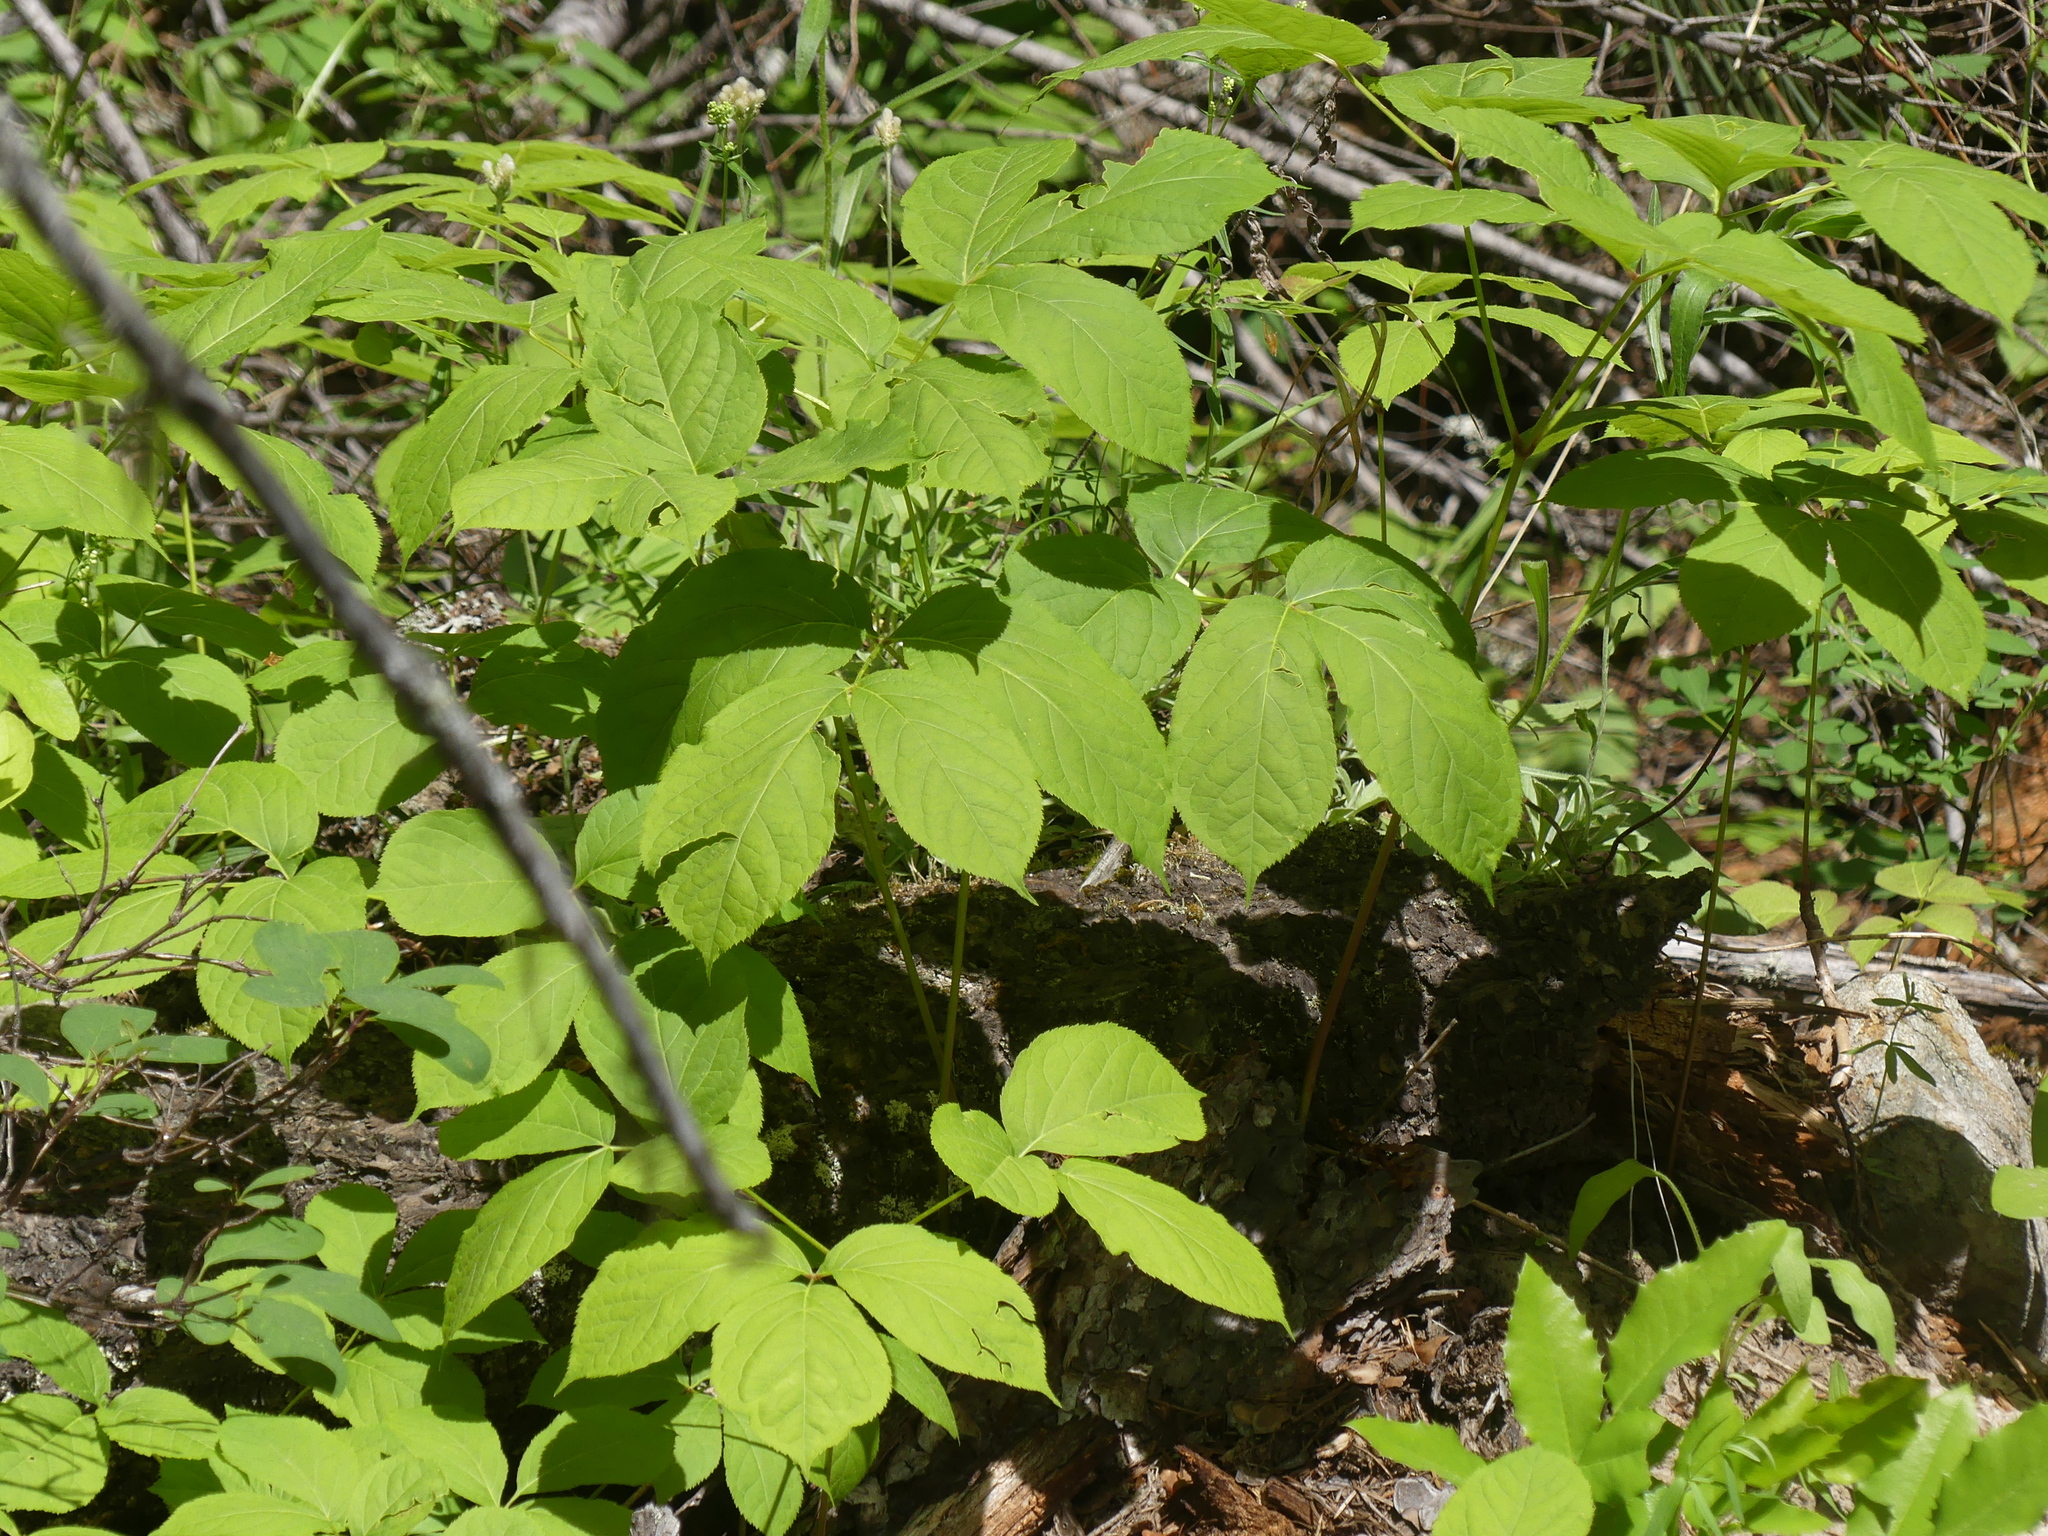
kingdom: Plantae
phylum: Tracheophyta
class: Magnoliopsida
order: Apiales
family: Araliaceae
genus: Aralia
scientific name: Aralia nudicaulis
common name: Wild sarsaparilla
